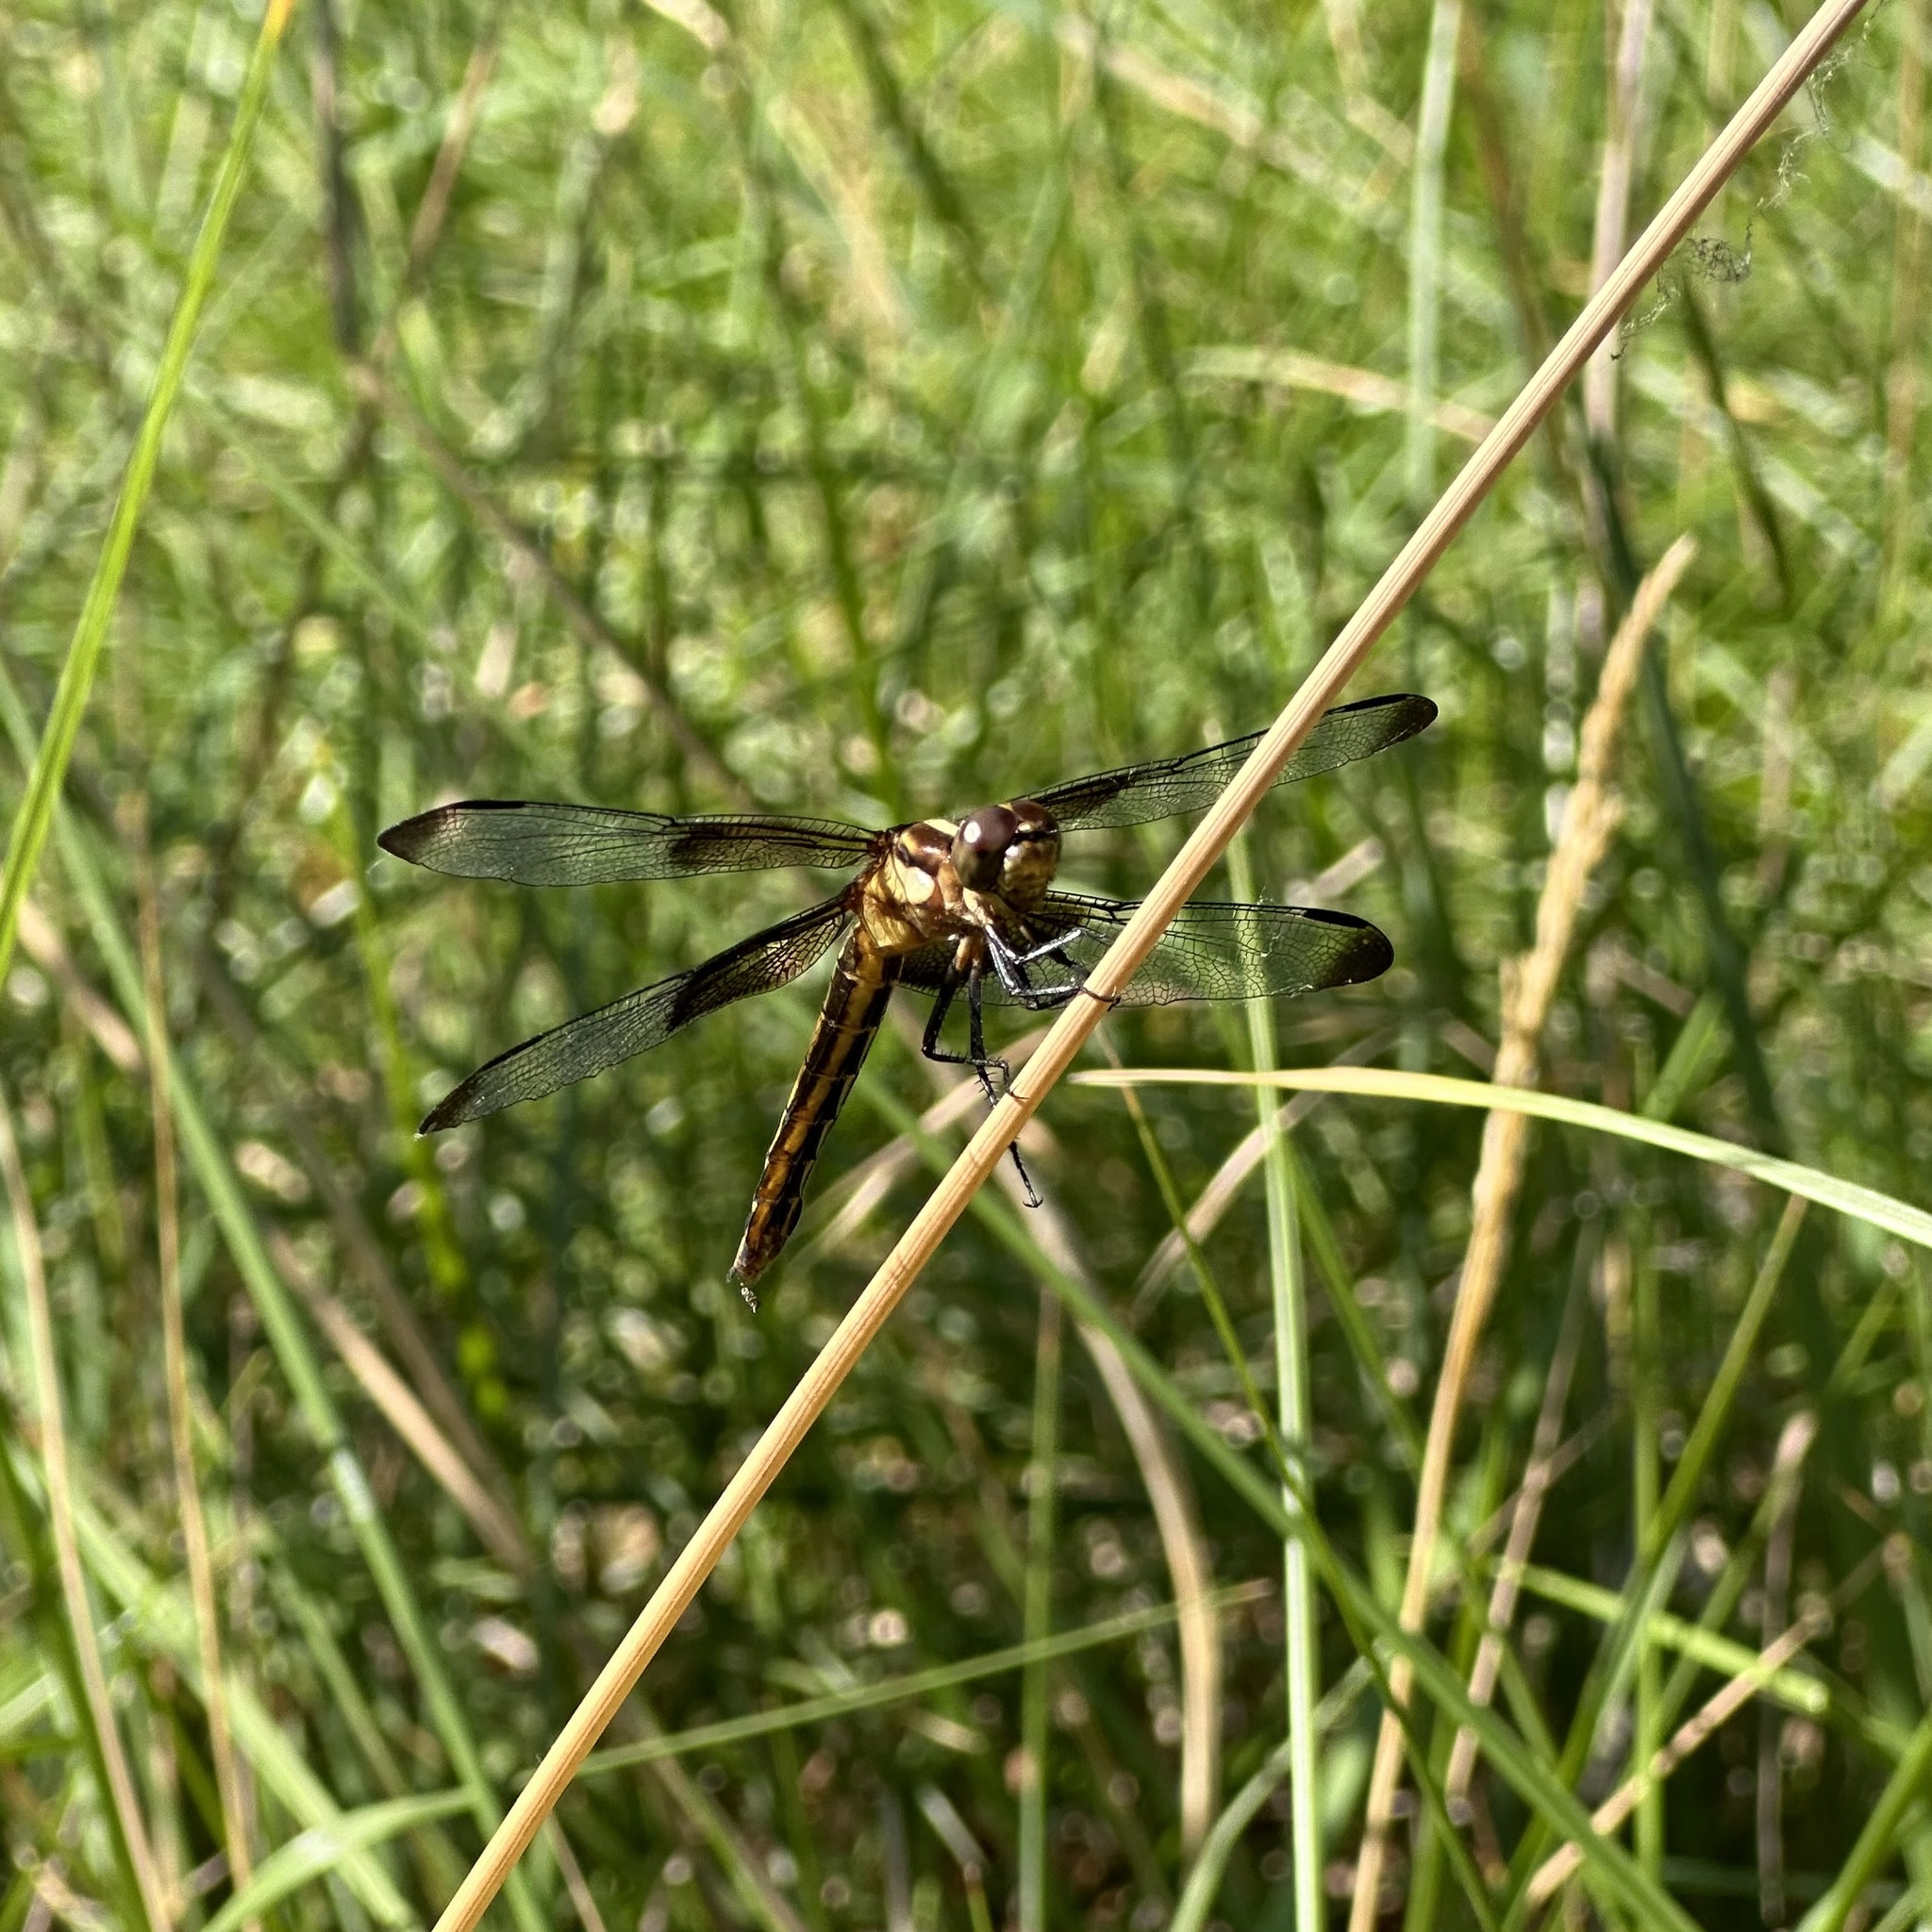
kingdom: Animalia
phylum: Arthropoda
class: Insecta
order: Odonata
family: Libellulidae
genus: Libellula
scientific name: Libellula luctuosa
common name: Widow skimmer
